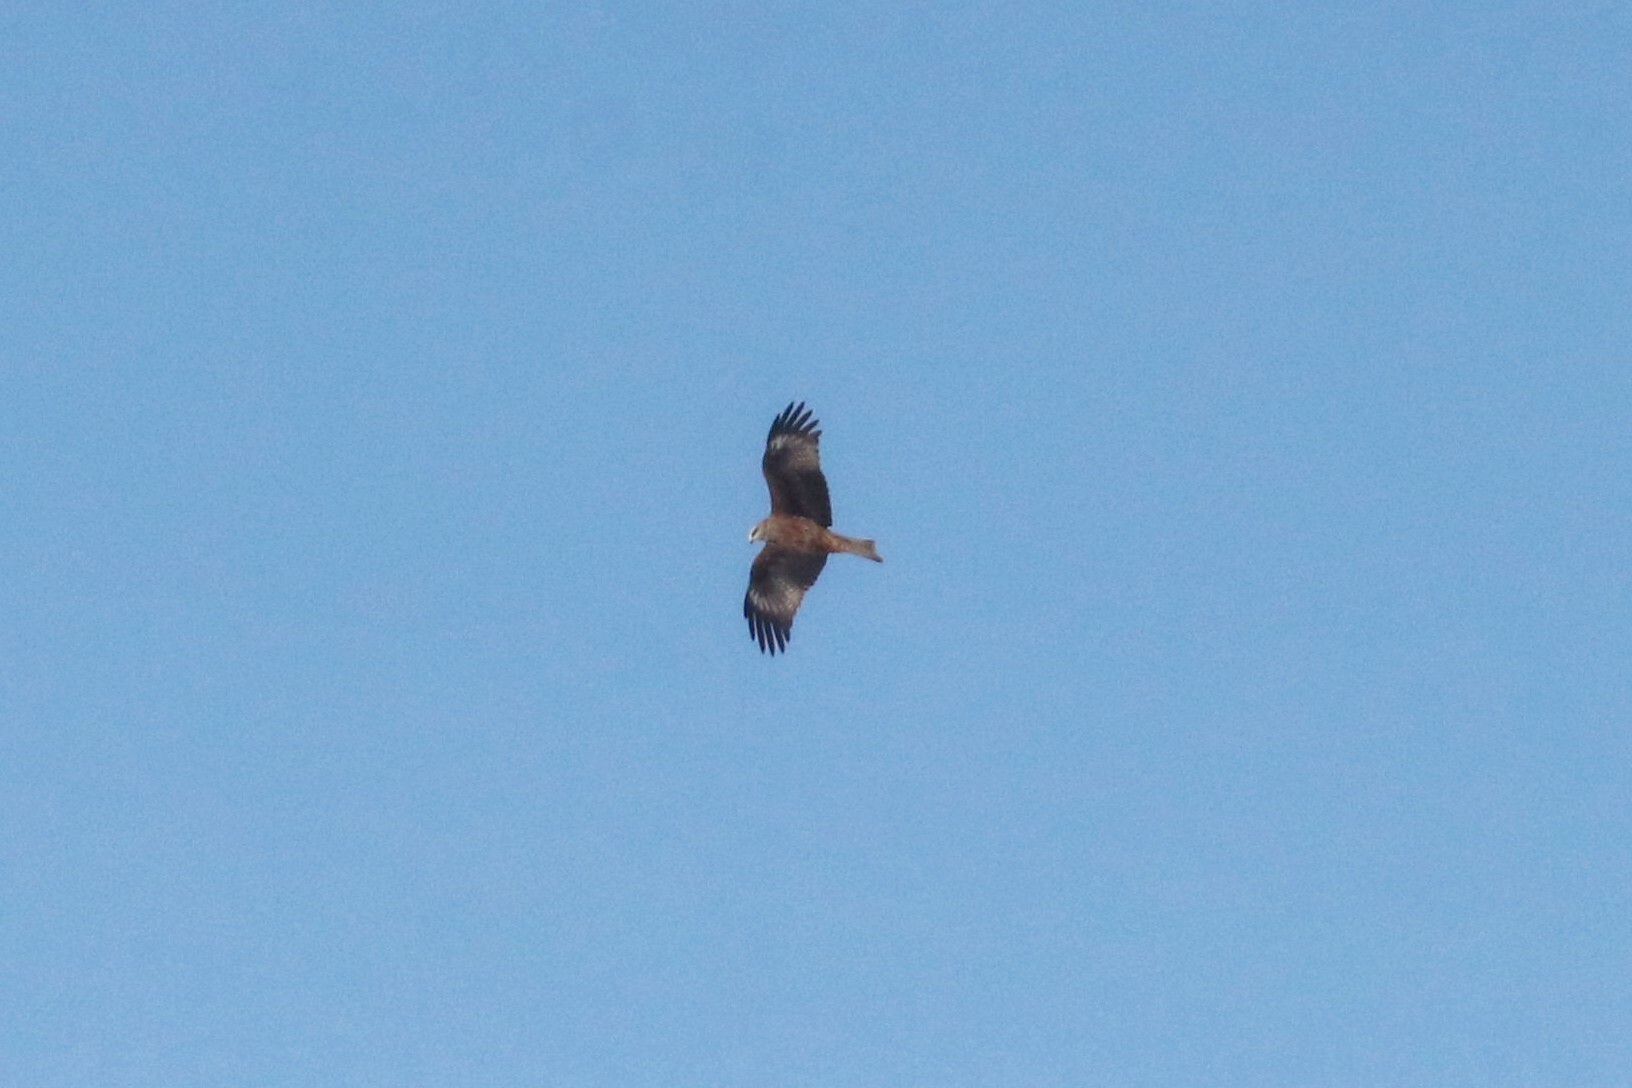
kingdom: Animalia
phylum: Chordata
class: Aves
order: Accipitriformes
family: Accipitridae
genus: Milvus
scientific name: Milvus migrans
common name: Black kite
